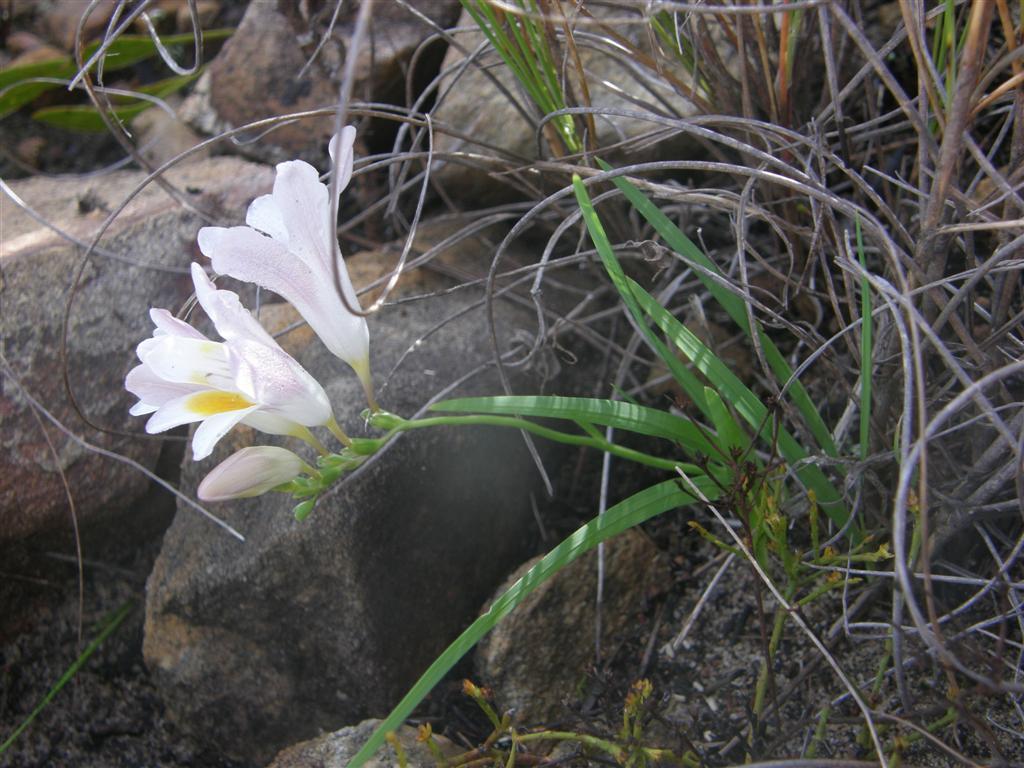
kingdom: Plantae
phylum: Tracheophyta
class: Liliopsida
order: Asparagales
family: Iridaceae
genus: Freesia
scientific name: Freesia caryophyllacea
